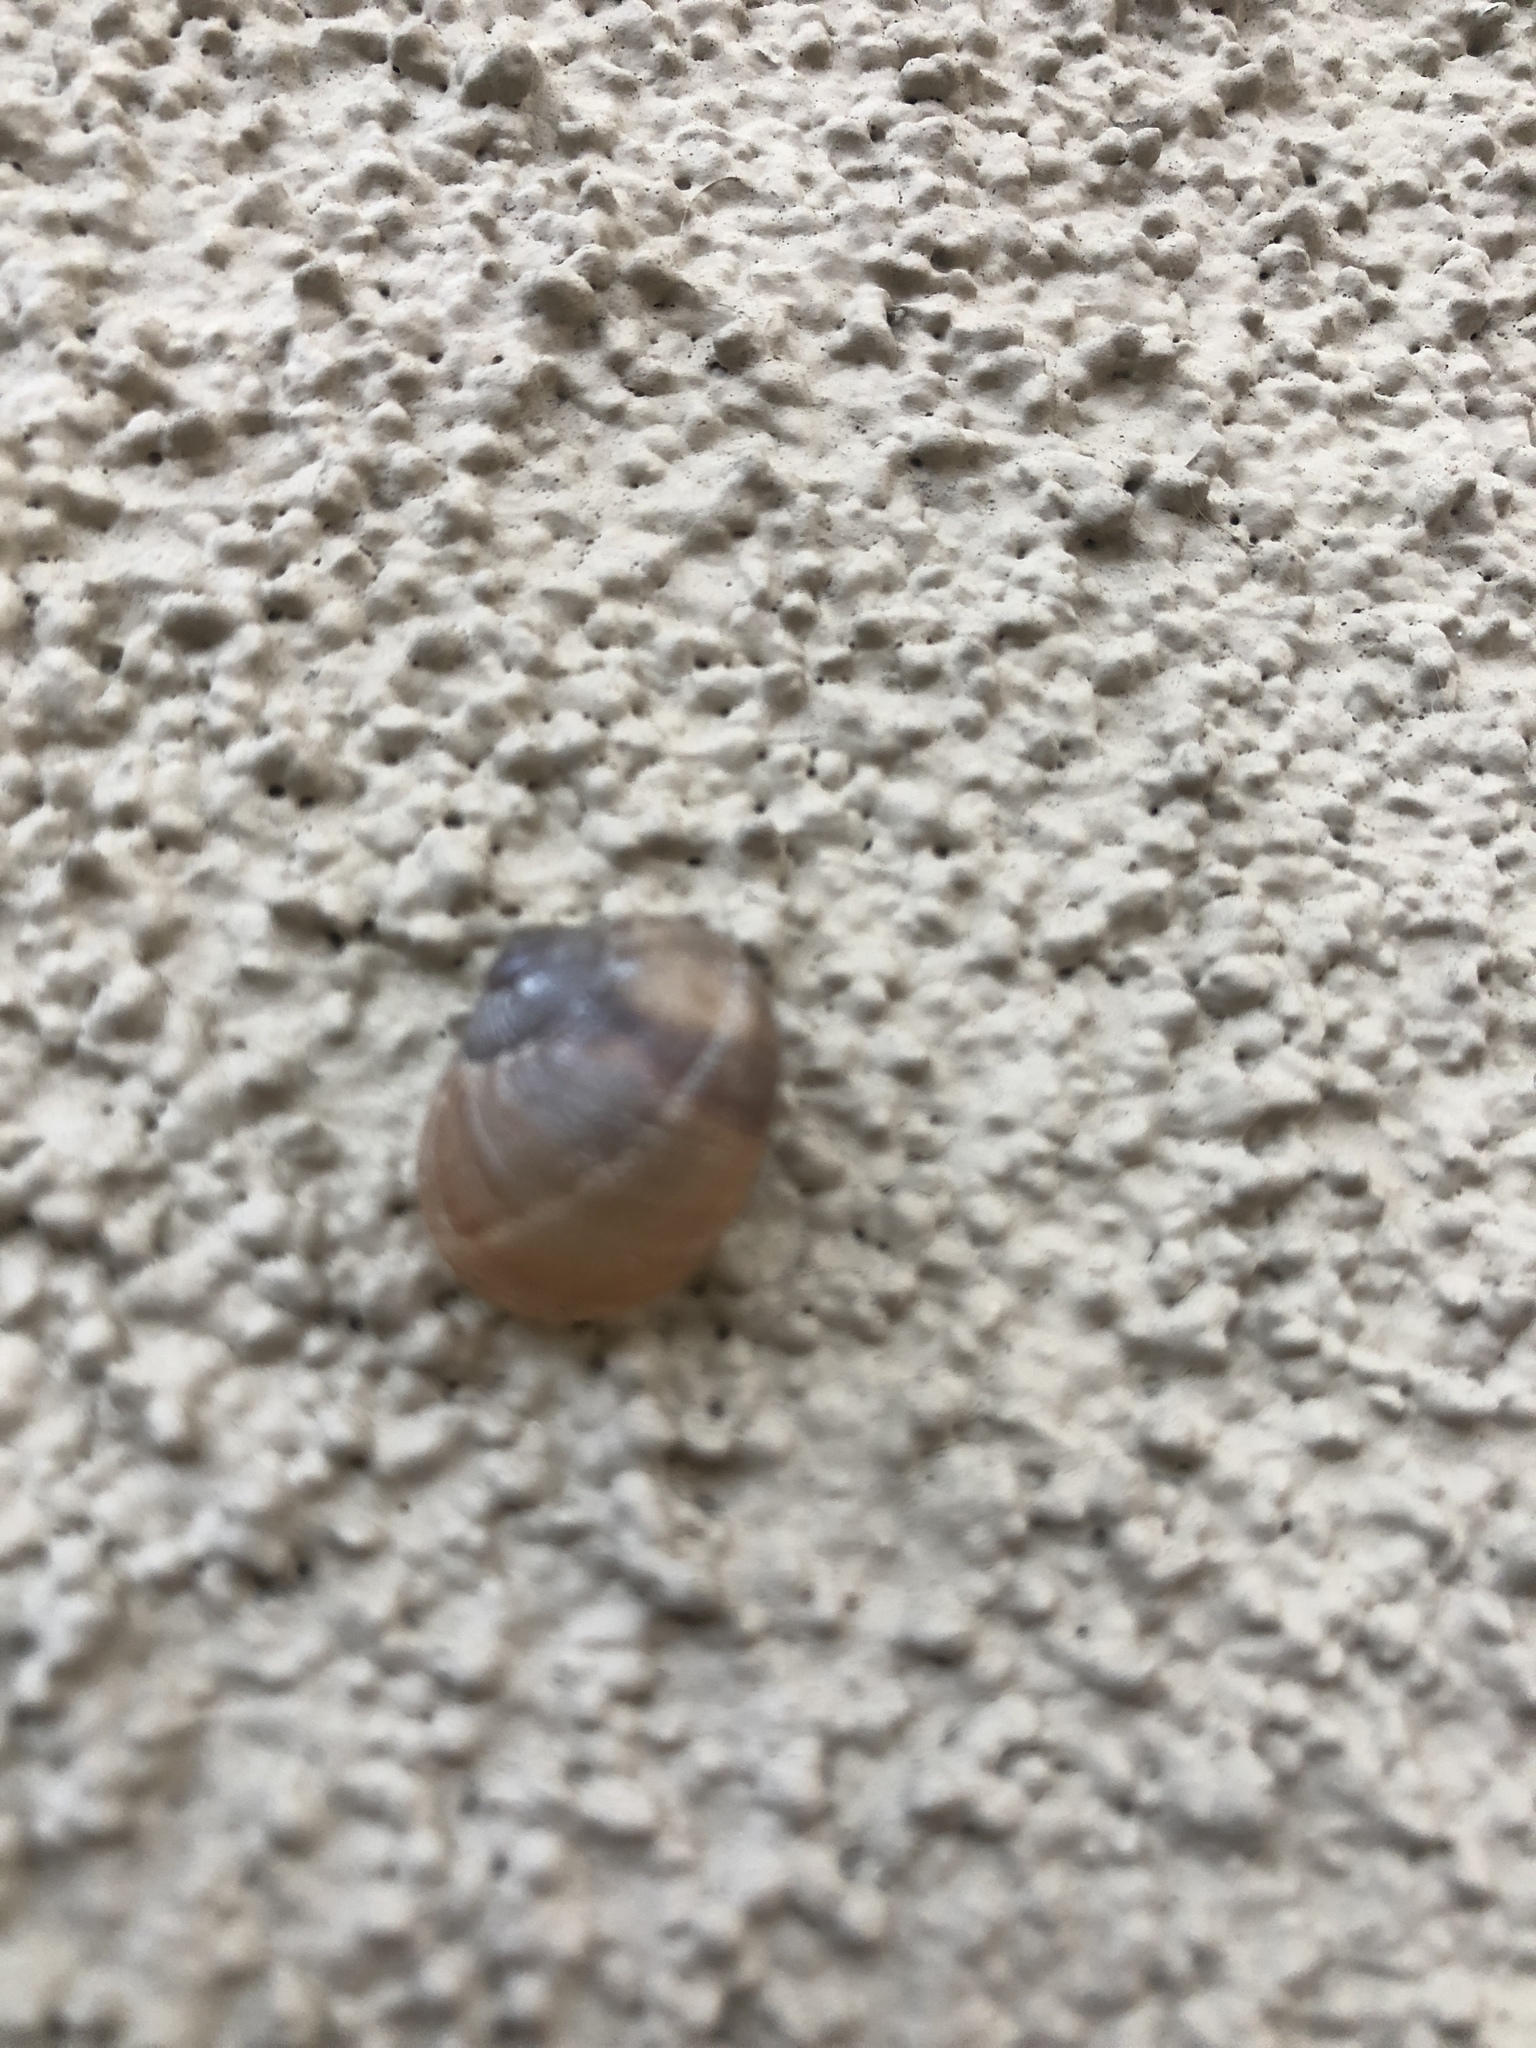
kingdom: Animalia
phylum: Mollusca
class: Gastropoda
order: Stylommatophora
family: Helicidae
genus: Cornu
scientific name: Cornu aspersum
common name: Brown garden snail
